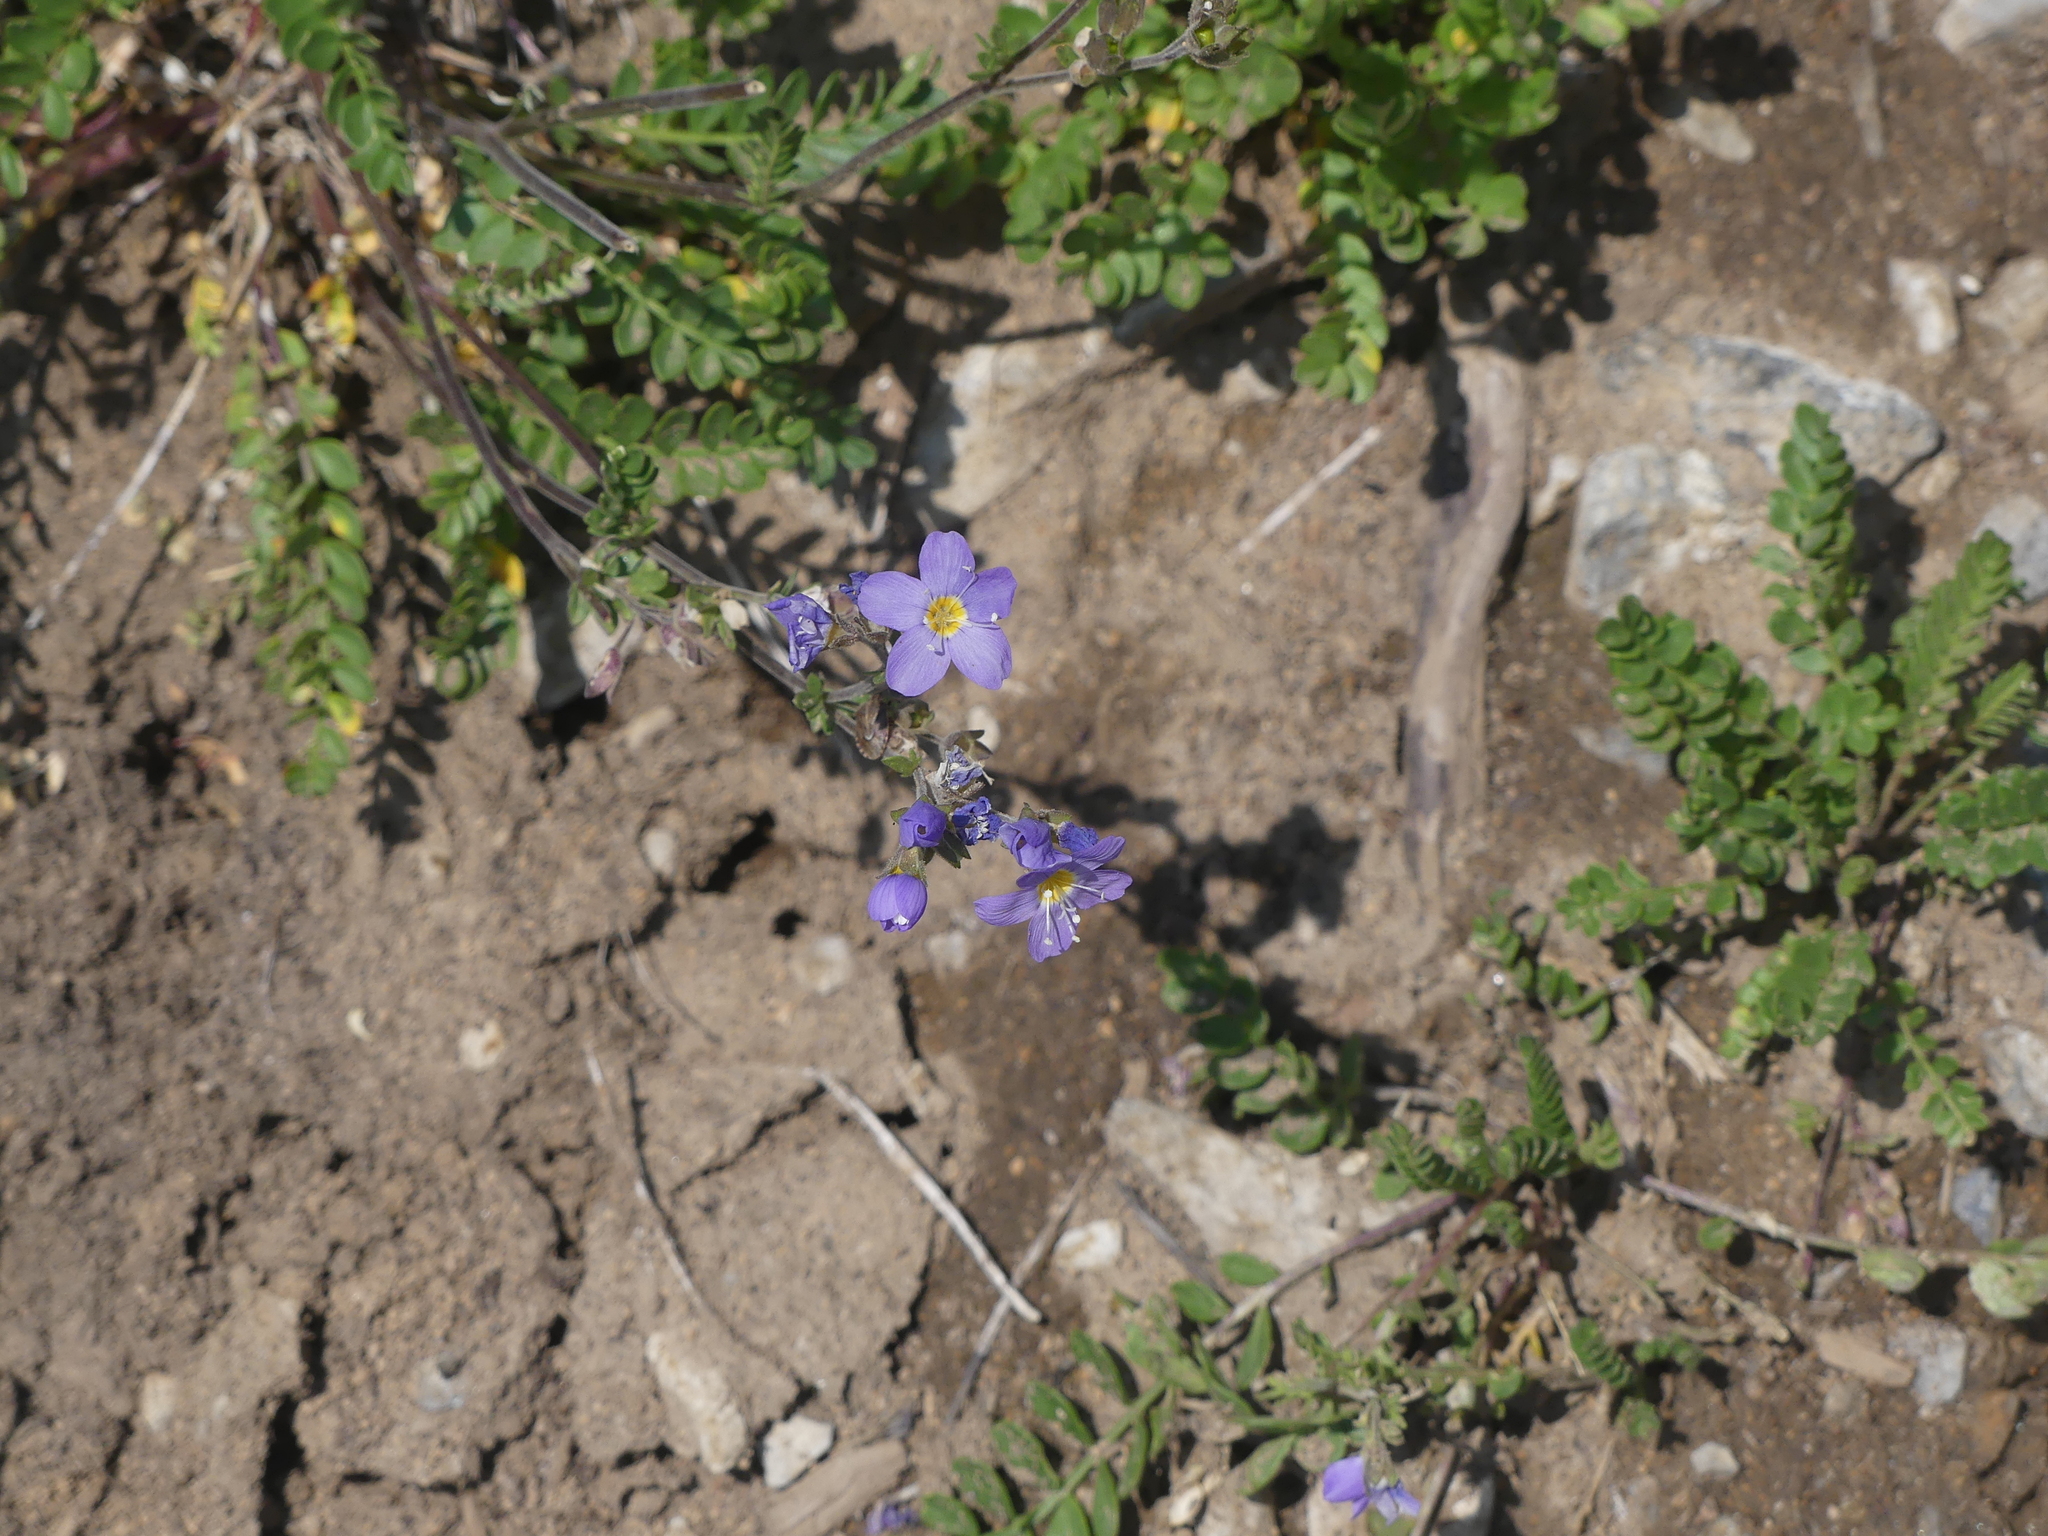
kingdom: Plantae
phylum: Tracheophyta
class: Magnoliopsida
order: Ericales
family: Polemoniaceae
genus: Polemonium
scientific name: Polemonium pulcherrimum
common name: Short jacob's-ladder
